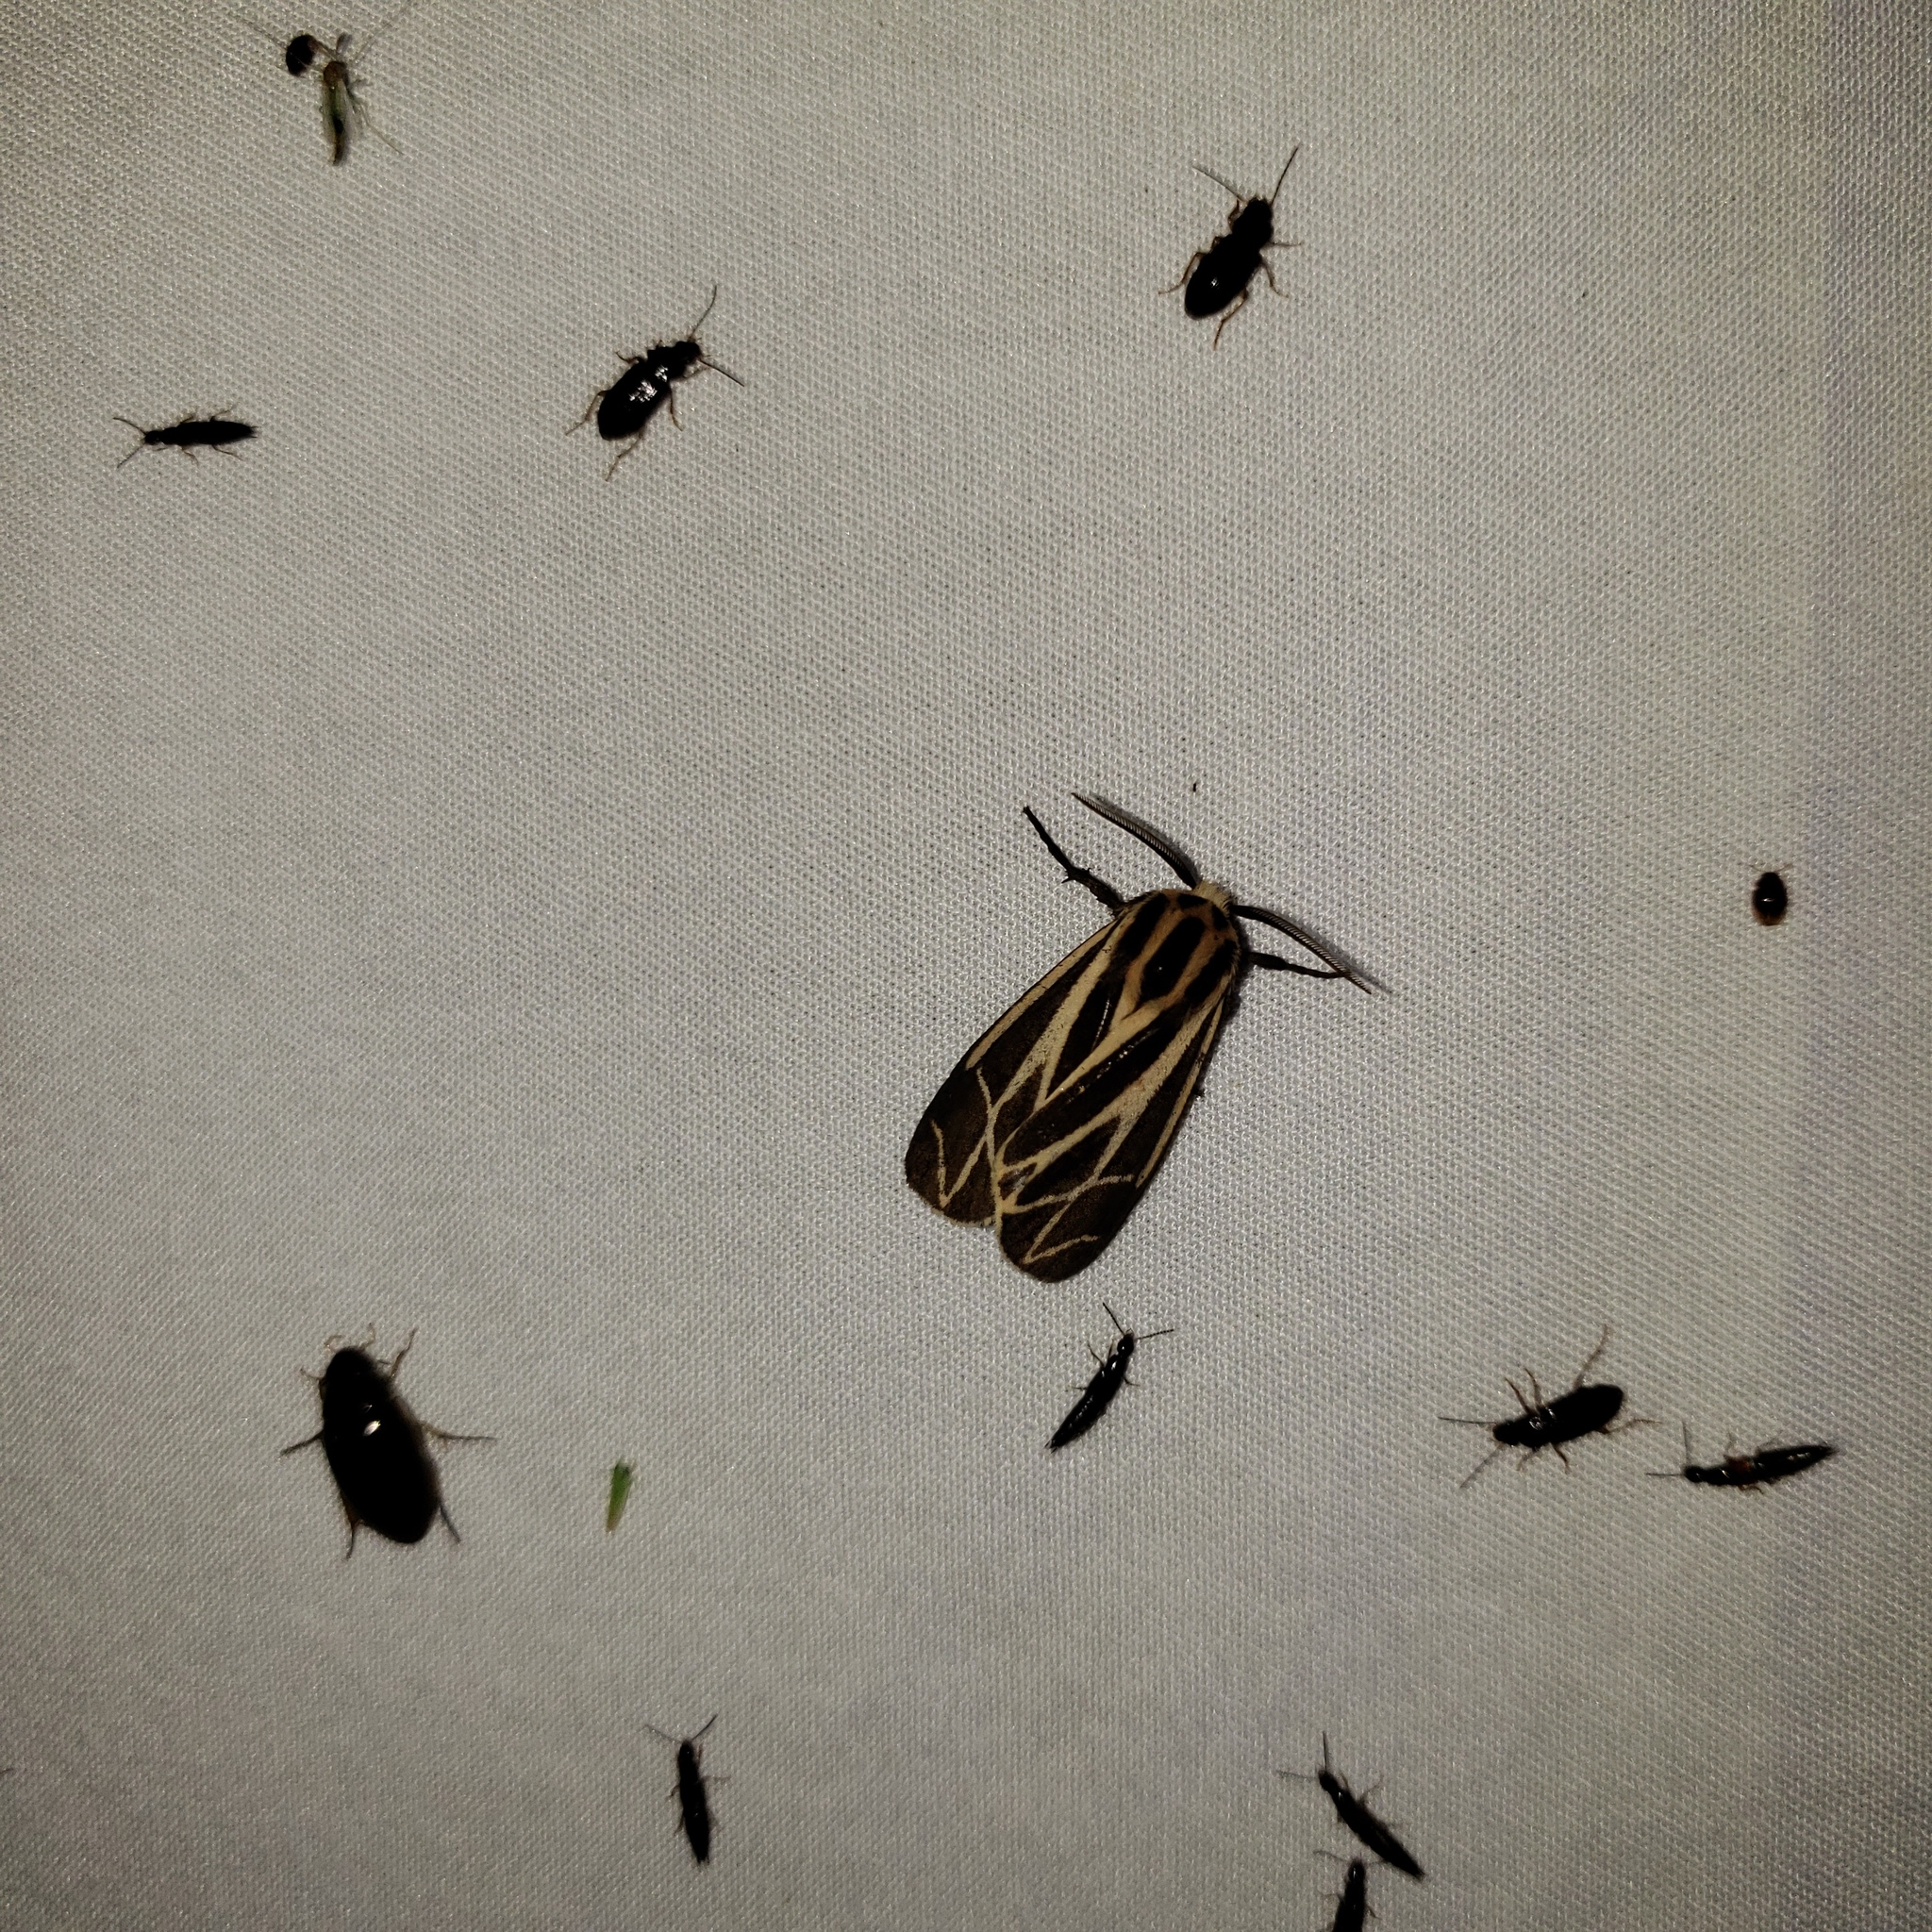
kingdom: Animalia
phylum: Arthropoda
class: Insecta
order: Lepidoptera
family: Erebidae
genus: Apantesis
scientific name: Apantesis phalerata
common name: Harnessed tiger moth
